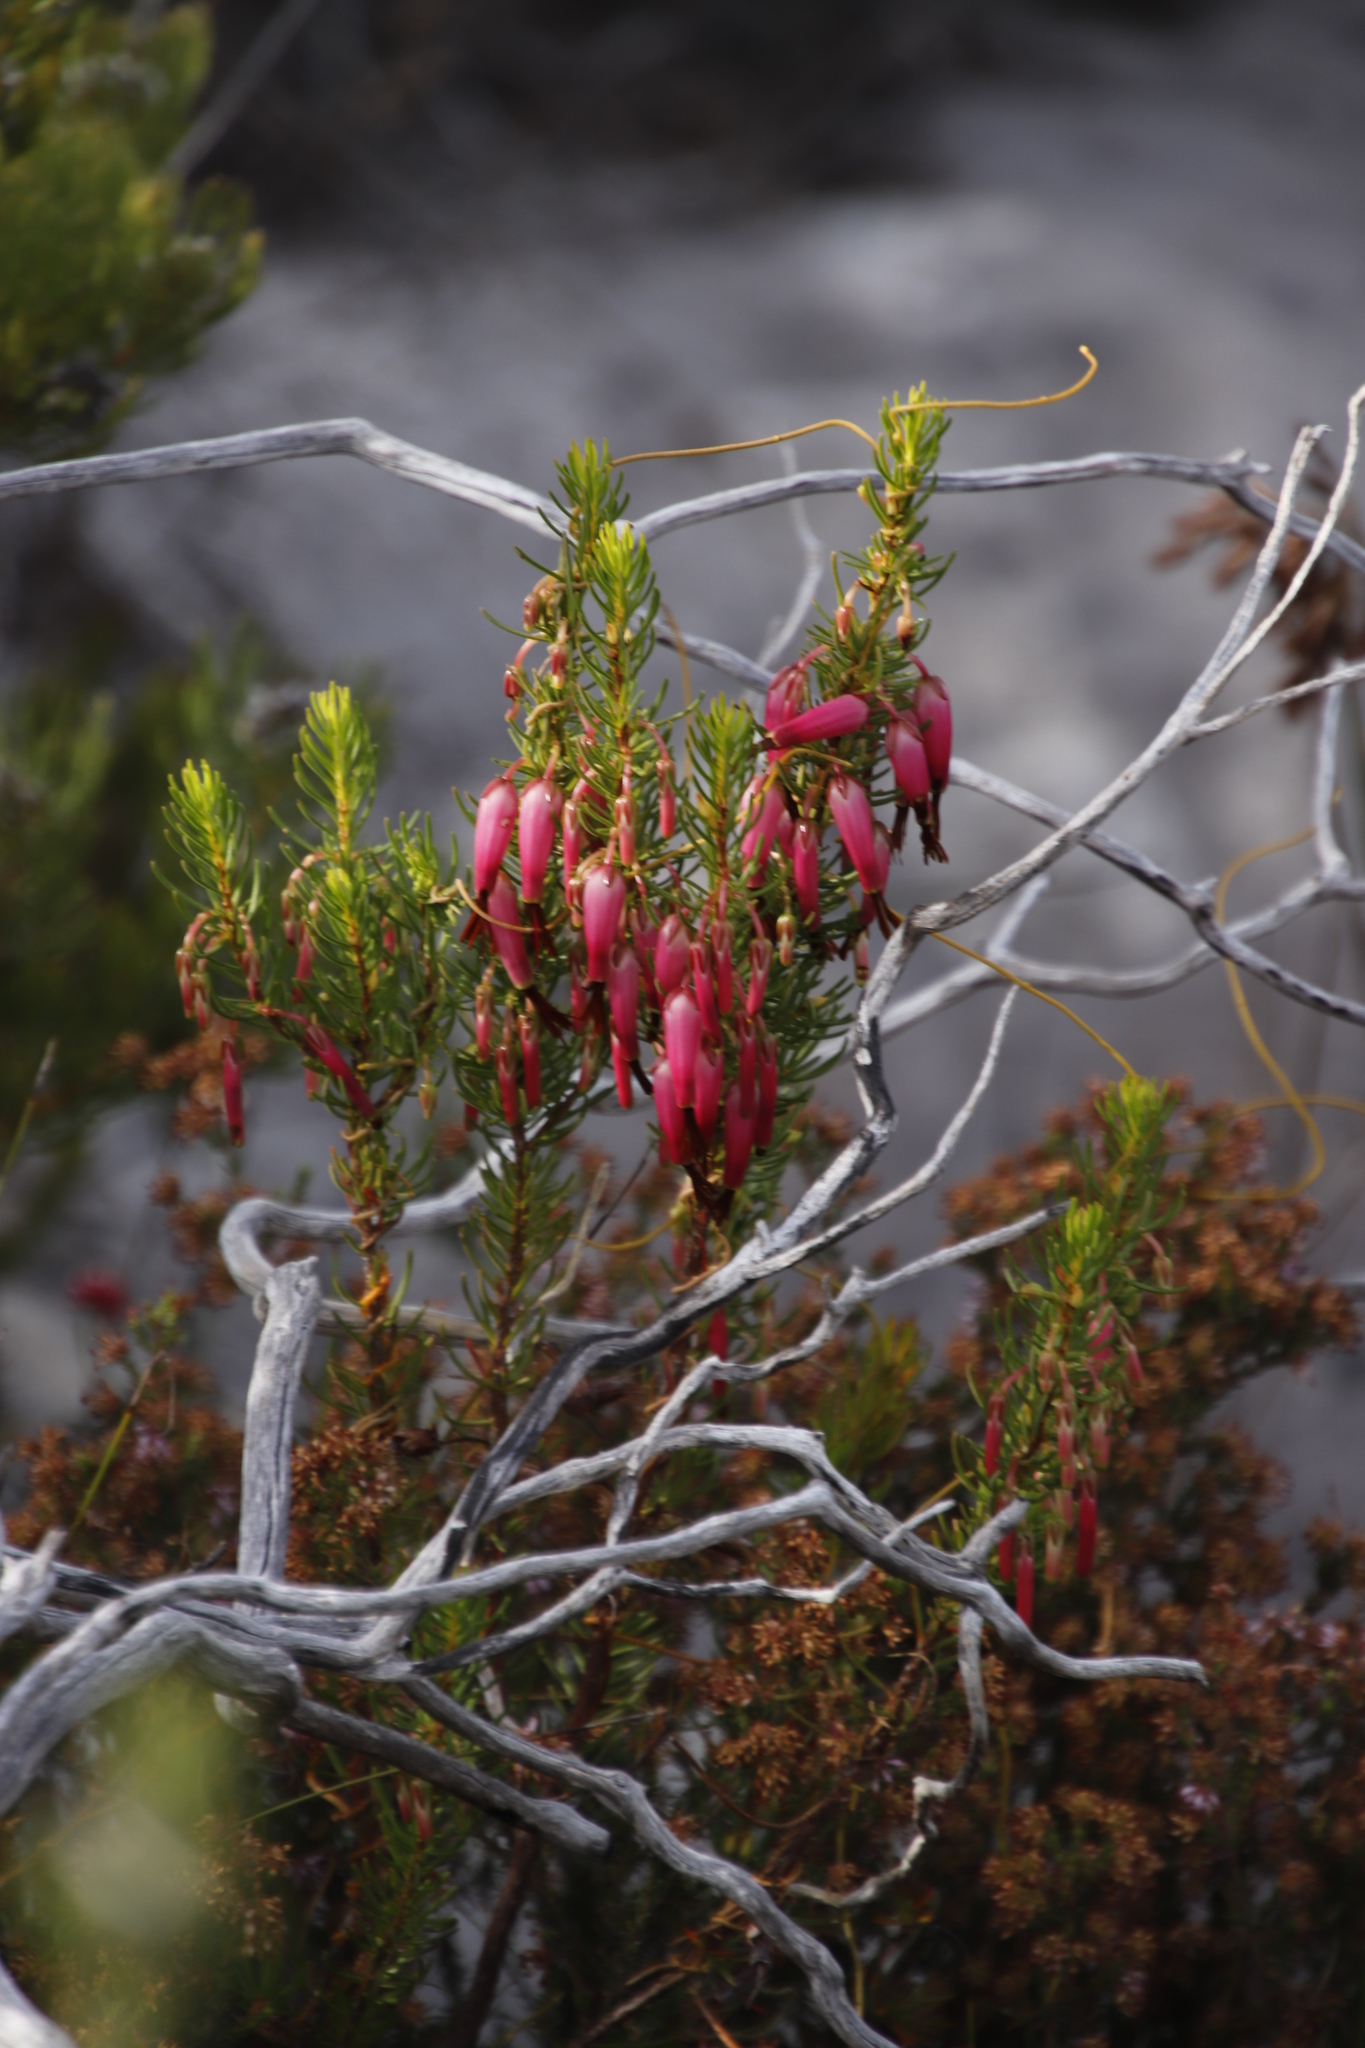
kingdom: Plantae
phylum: Tracheophyta
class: Magnoliopsida
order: Ericales
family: Ericaceae
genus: Erica
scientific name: Erica plukenetii
